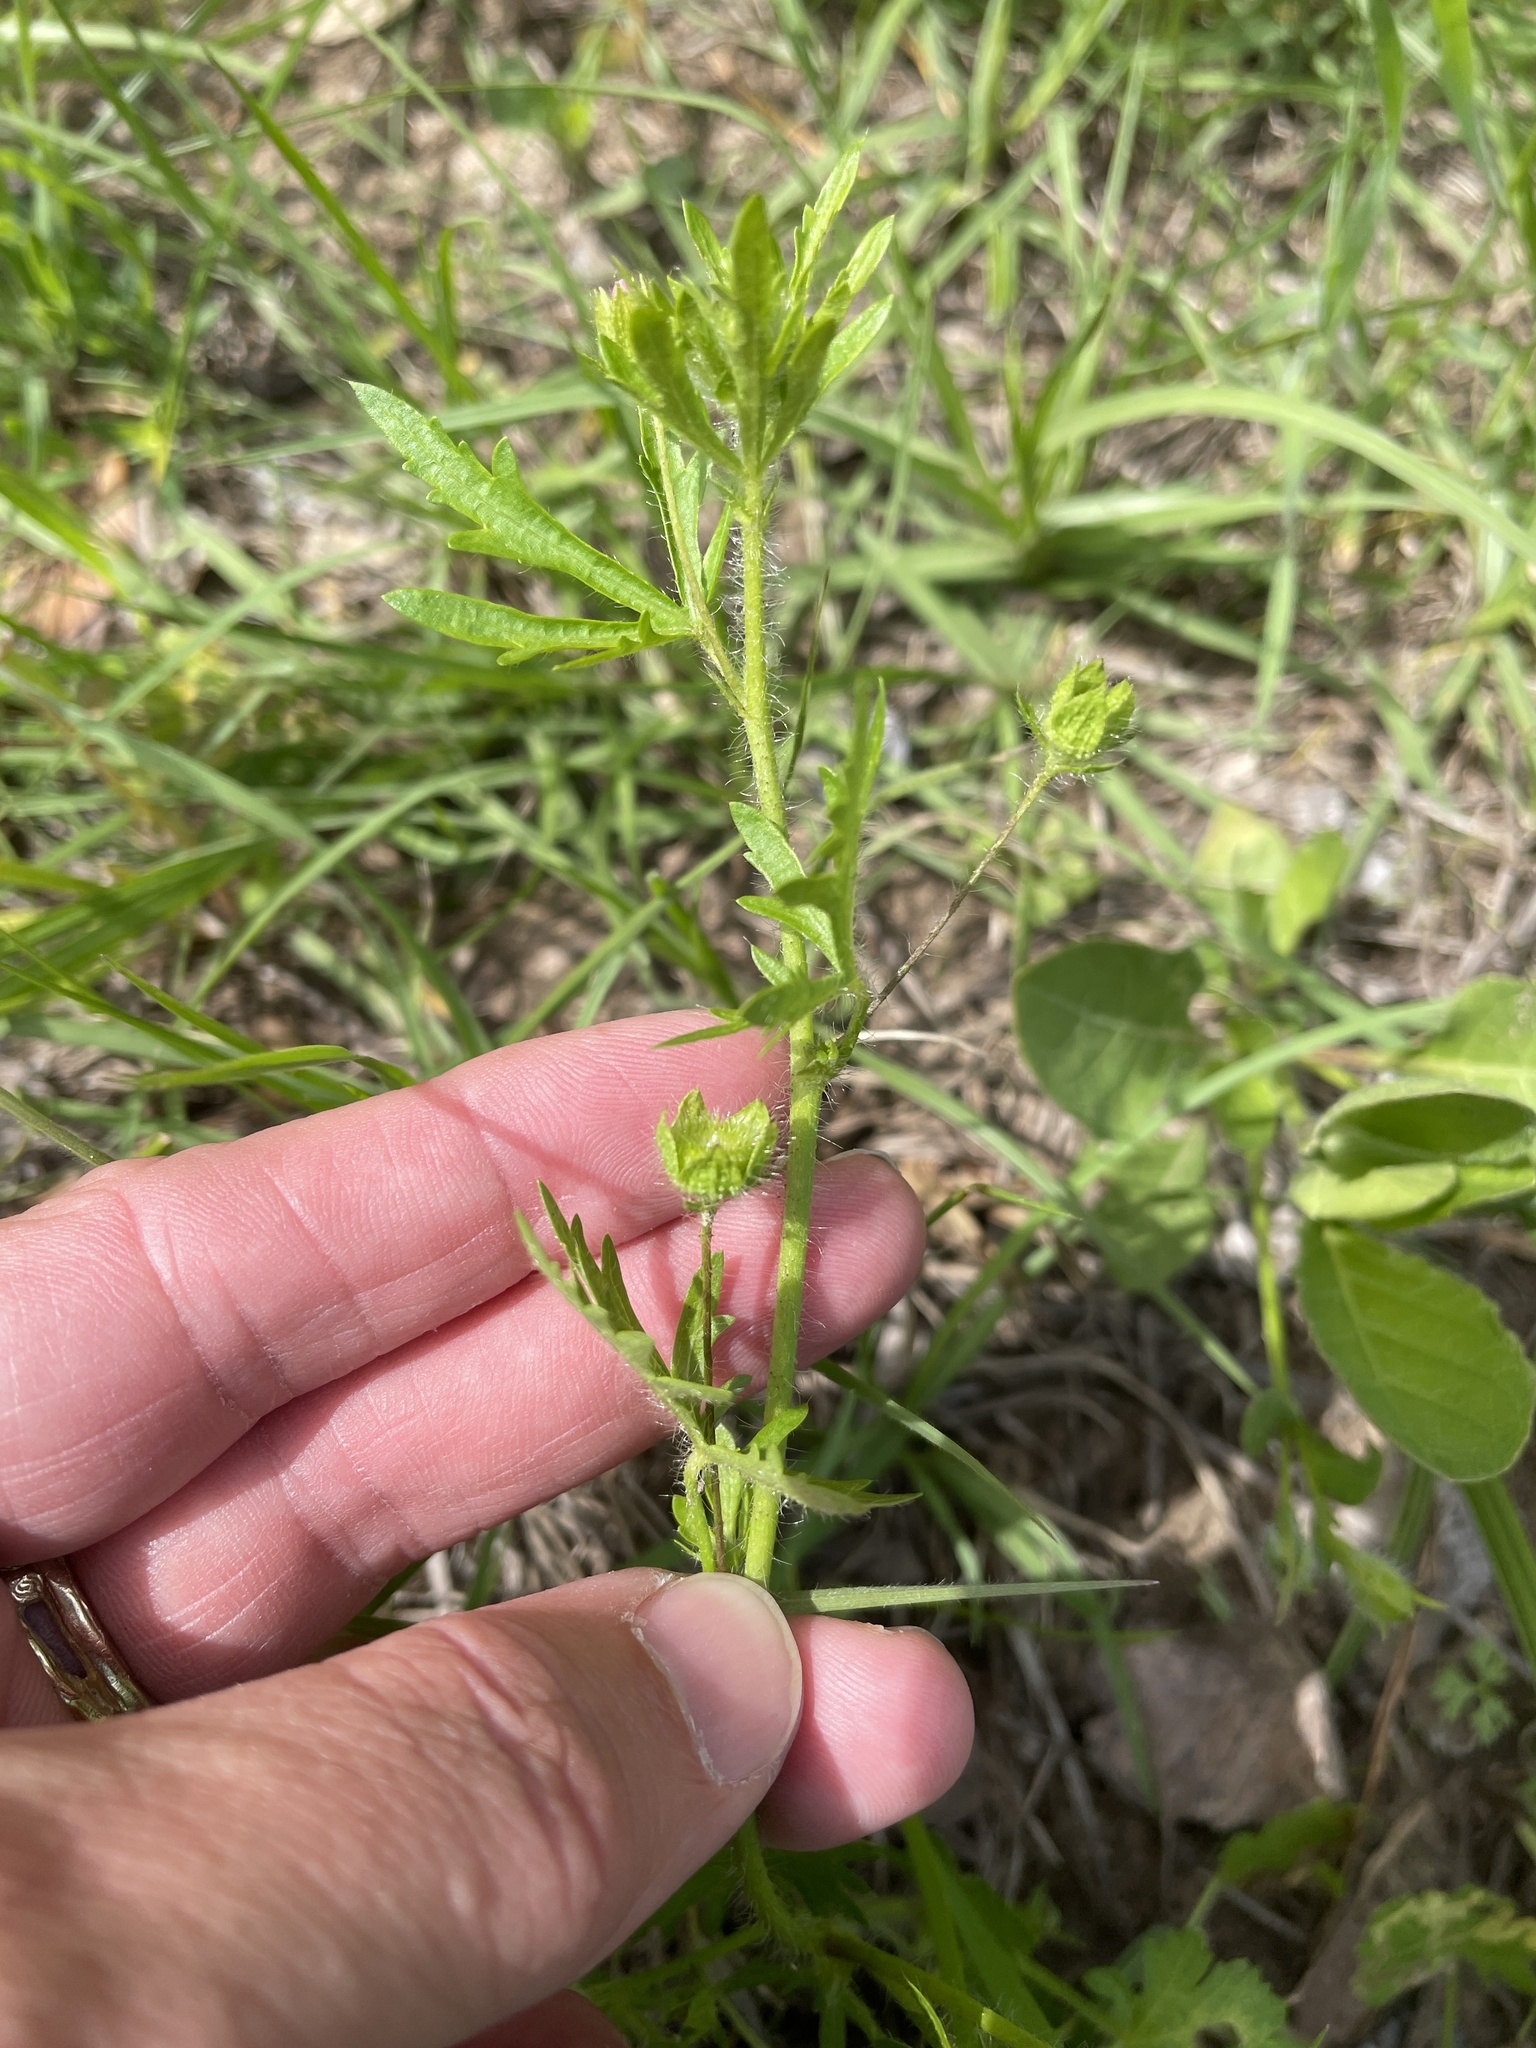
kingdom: Plantae
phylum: Tracheophyta
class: Magnoliopsida
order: Malvales
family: Malvaceae
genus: Modiola
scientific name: Modiola caroliniana
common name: Carolina bristlemallow
